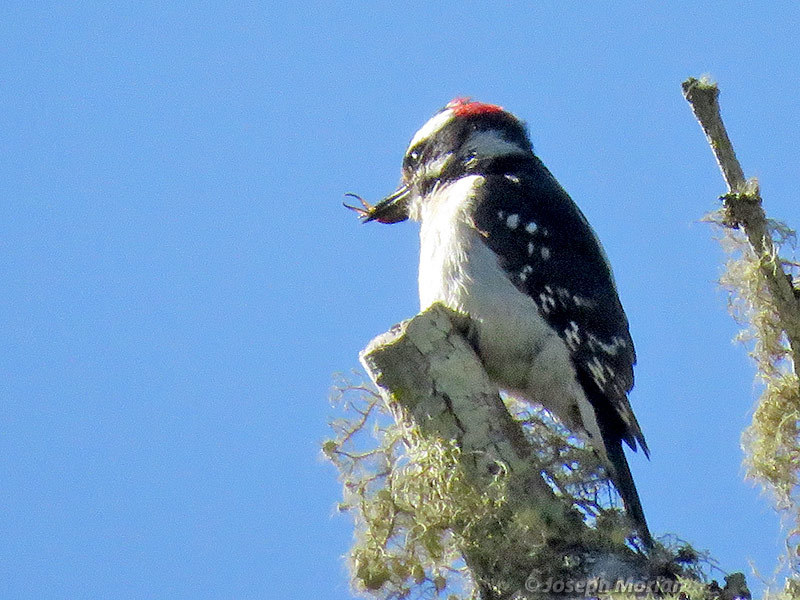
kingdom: Animalia
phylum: Chordata
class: Aves
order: Piciformes
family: Picidae
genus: Dryobates
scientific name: Dryobates pubescens
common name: Downy woodpecker
